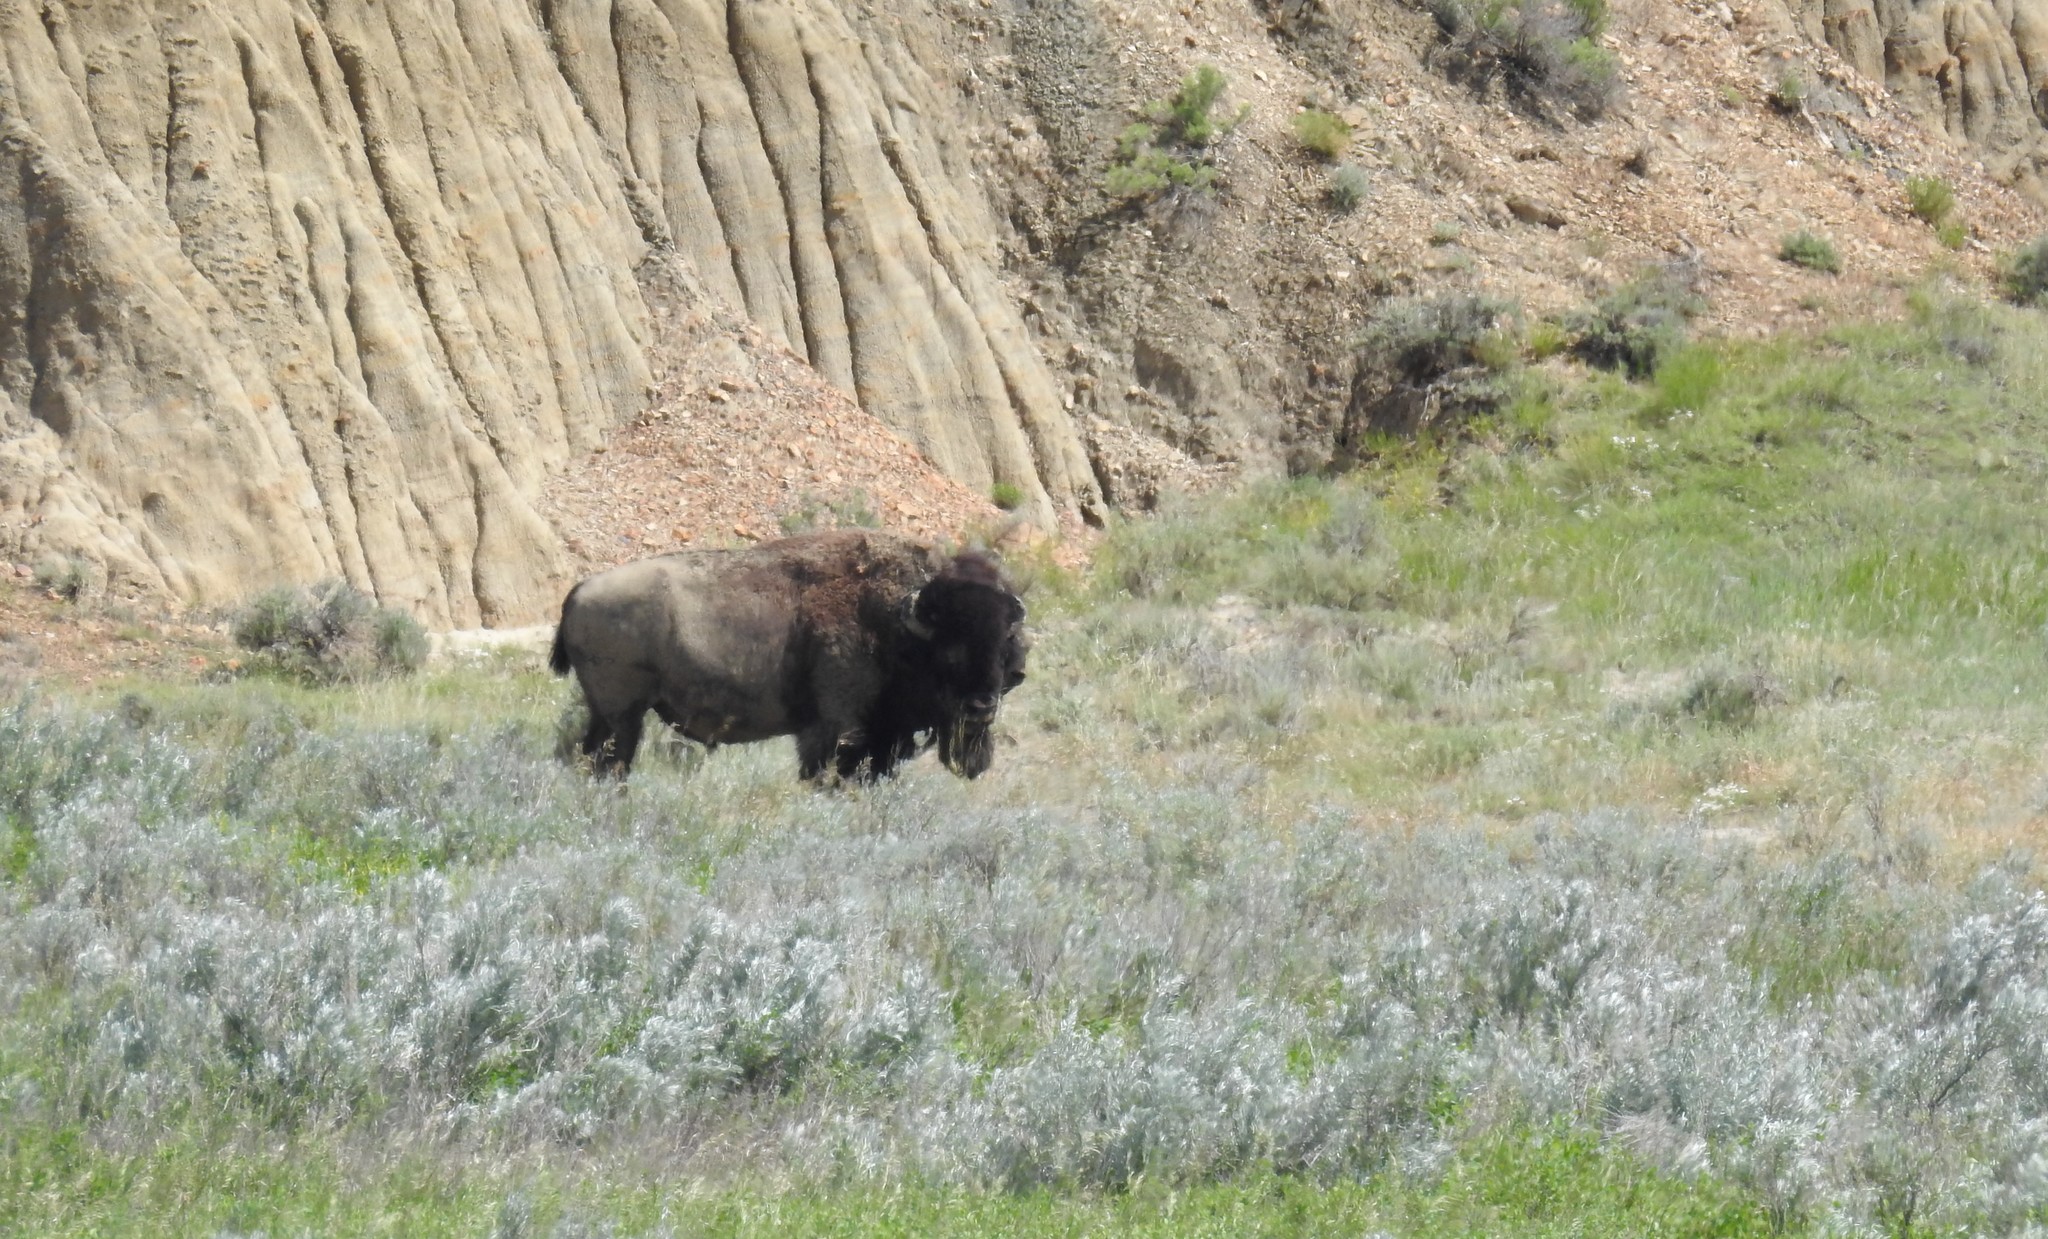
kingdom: Animalia
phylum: Chordata
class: Mammalia
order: Artiodactyla
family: Bovidae
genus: Bison
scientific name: Bison bison
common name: American bison
